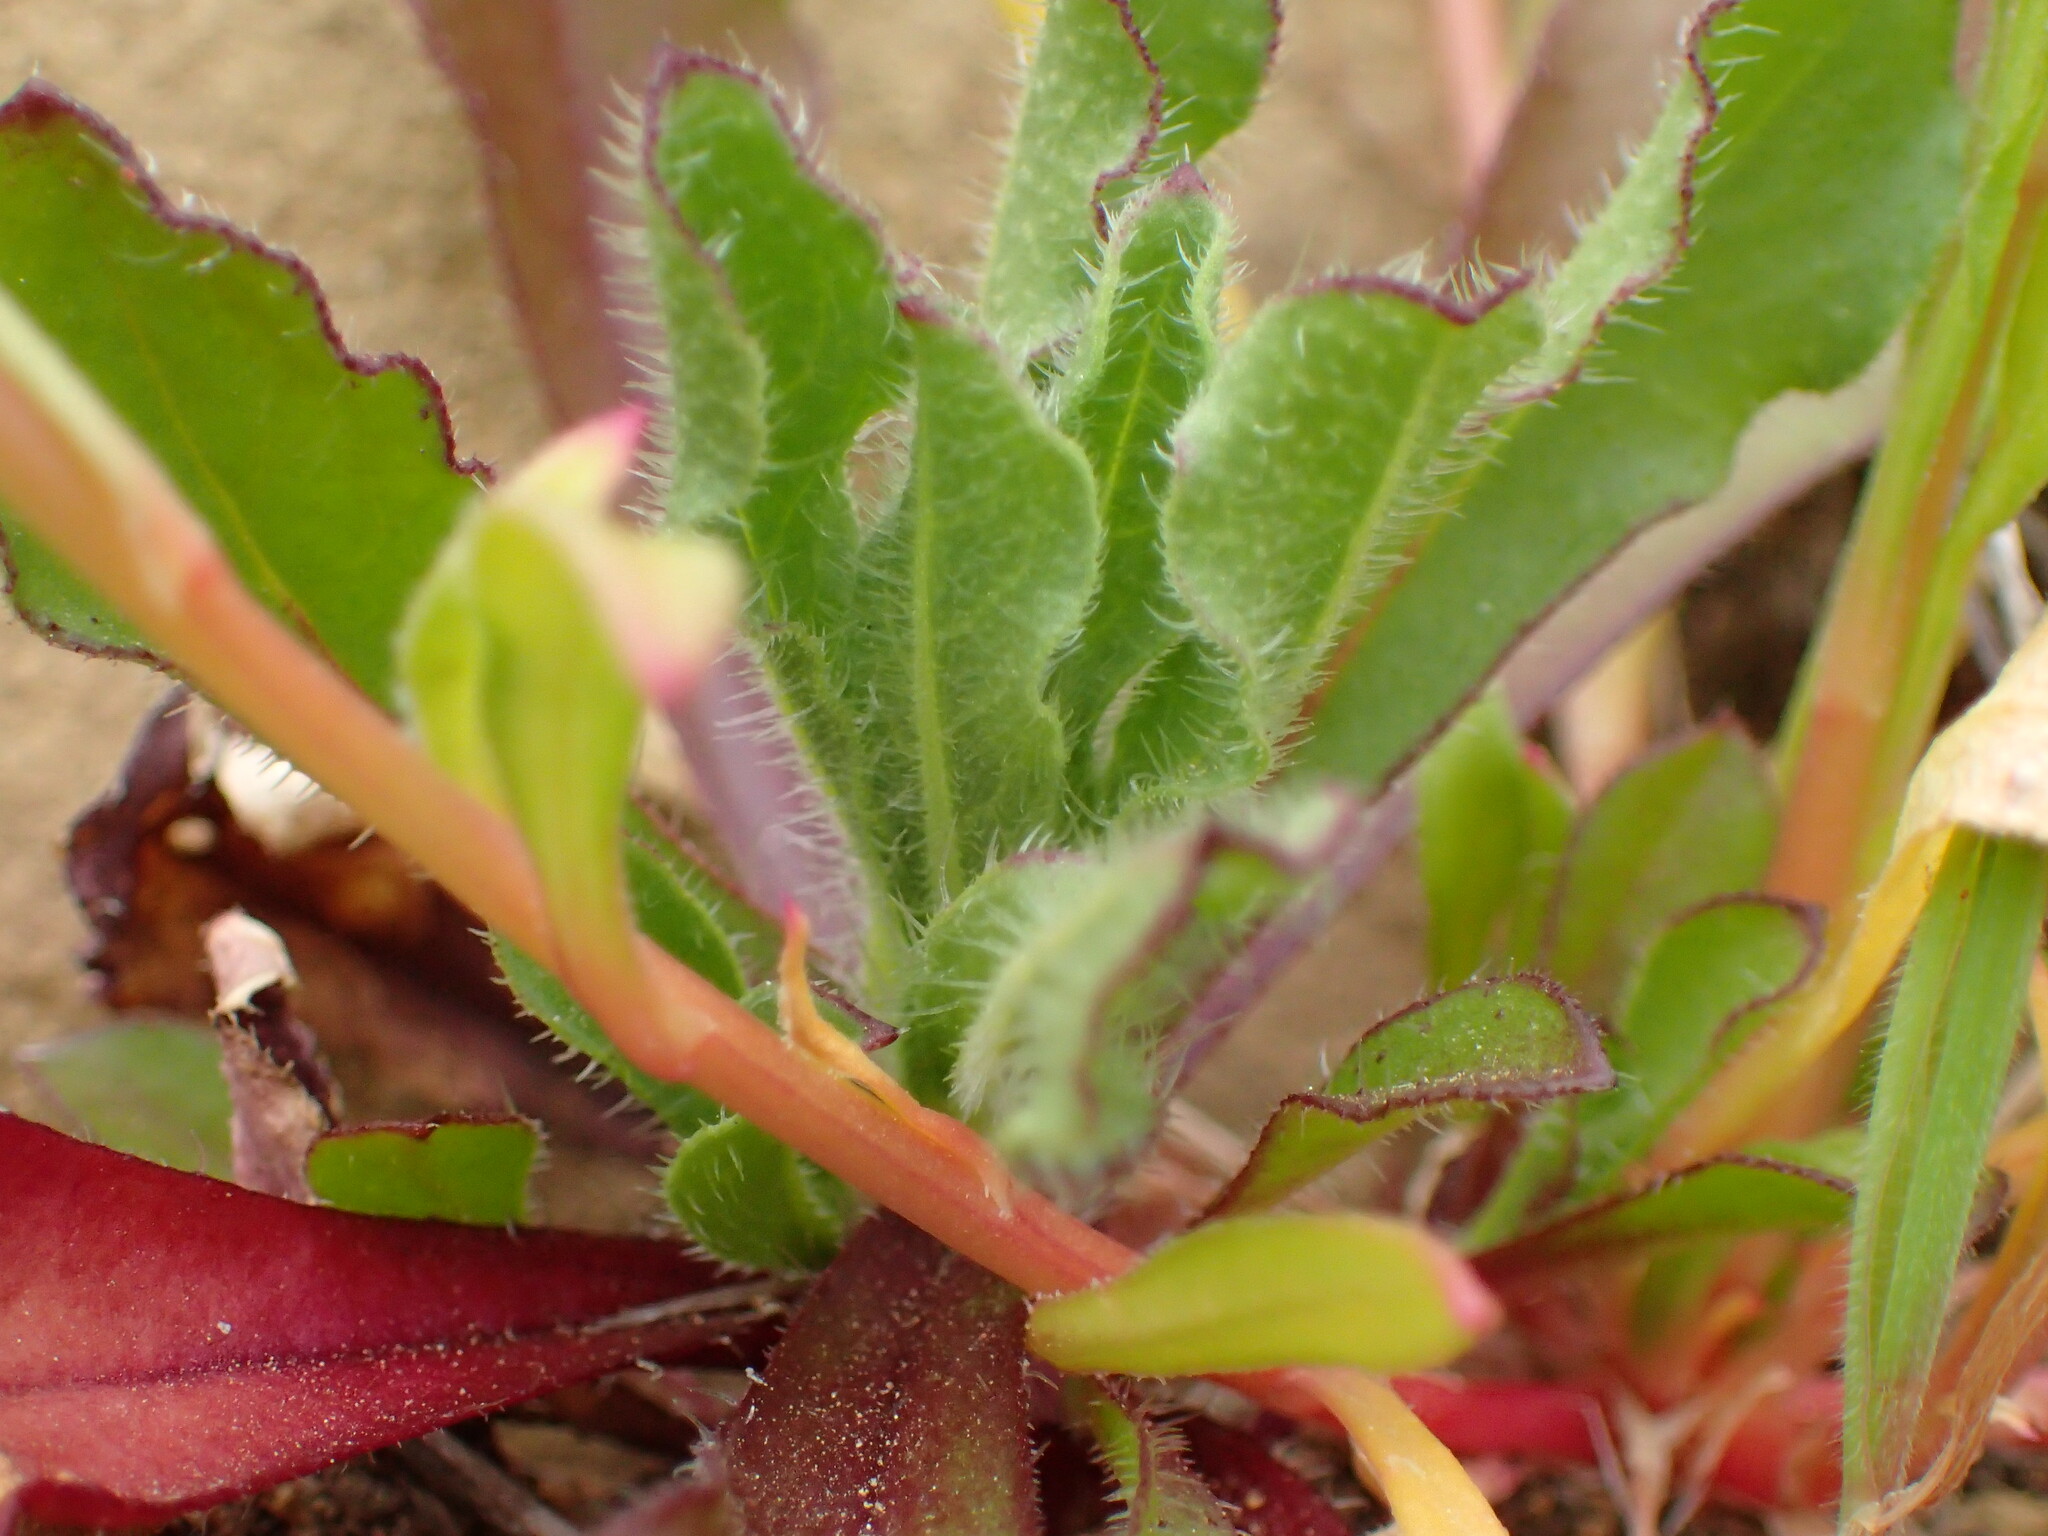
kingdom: Plantae
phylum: Tracheophyta
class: Magnoliopsida
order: Caryophyllales
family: Montiaceae
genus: Calandrinia
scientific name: Calandrinia breweri
